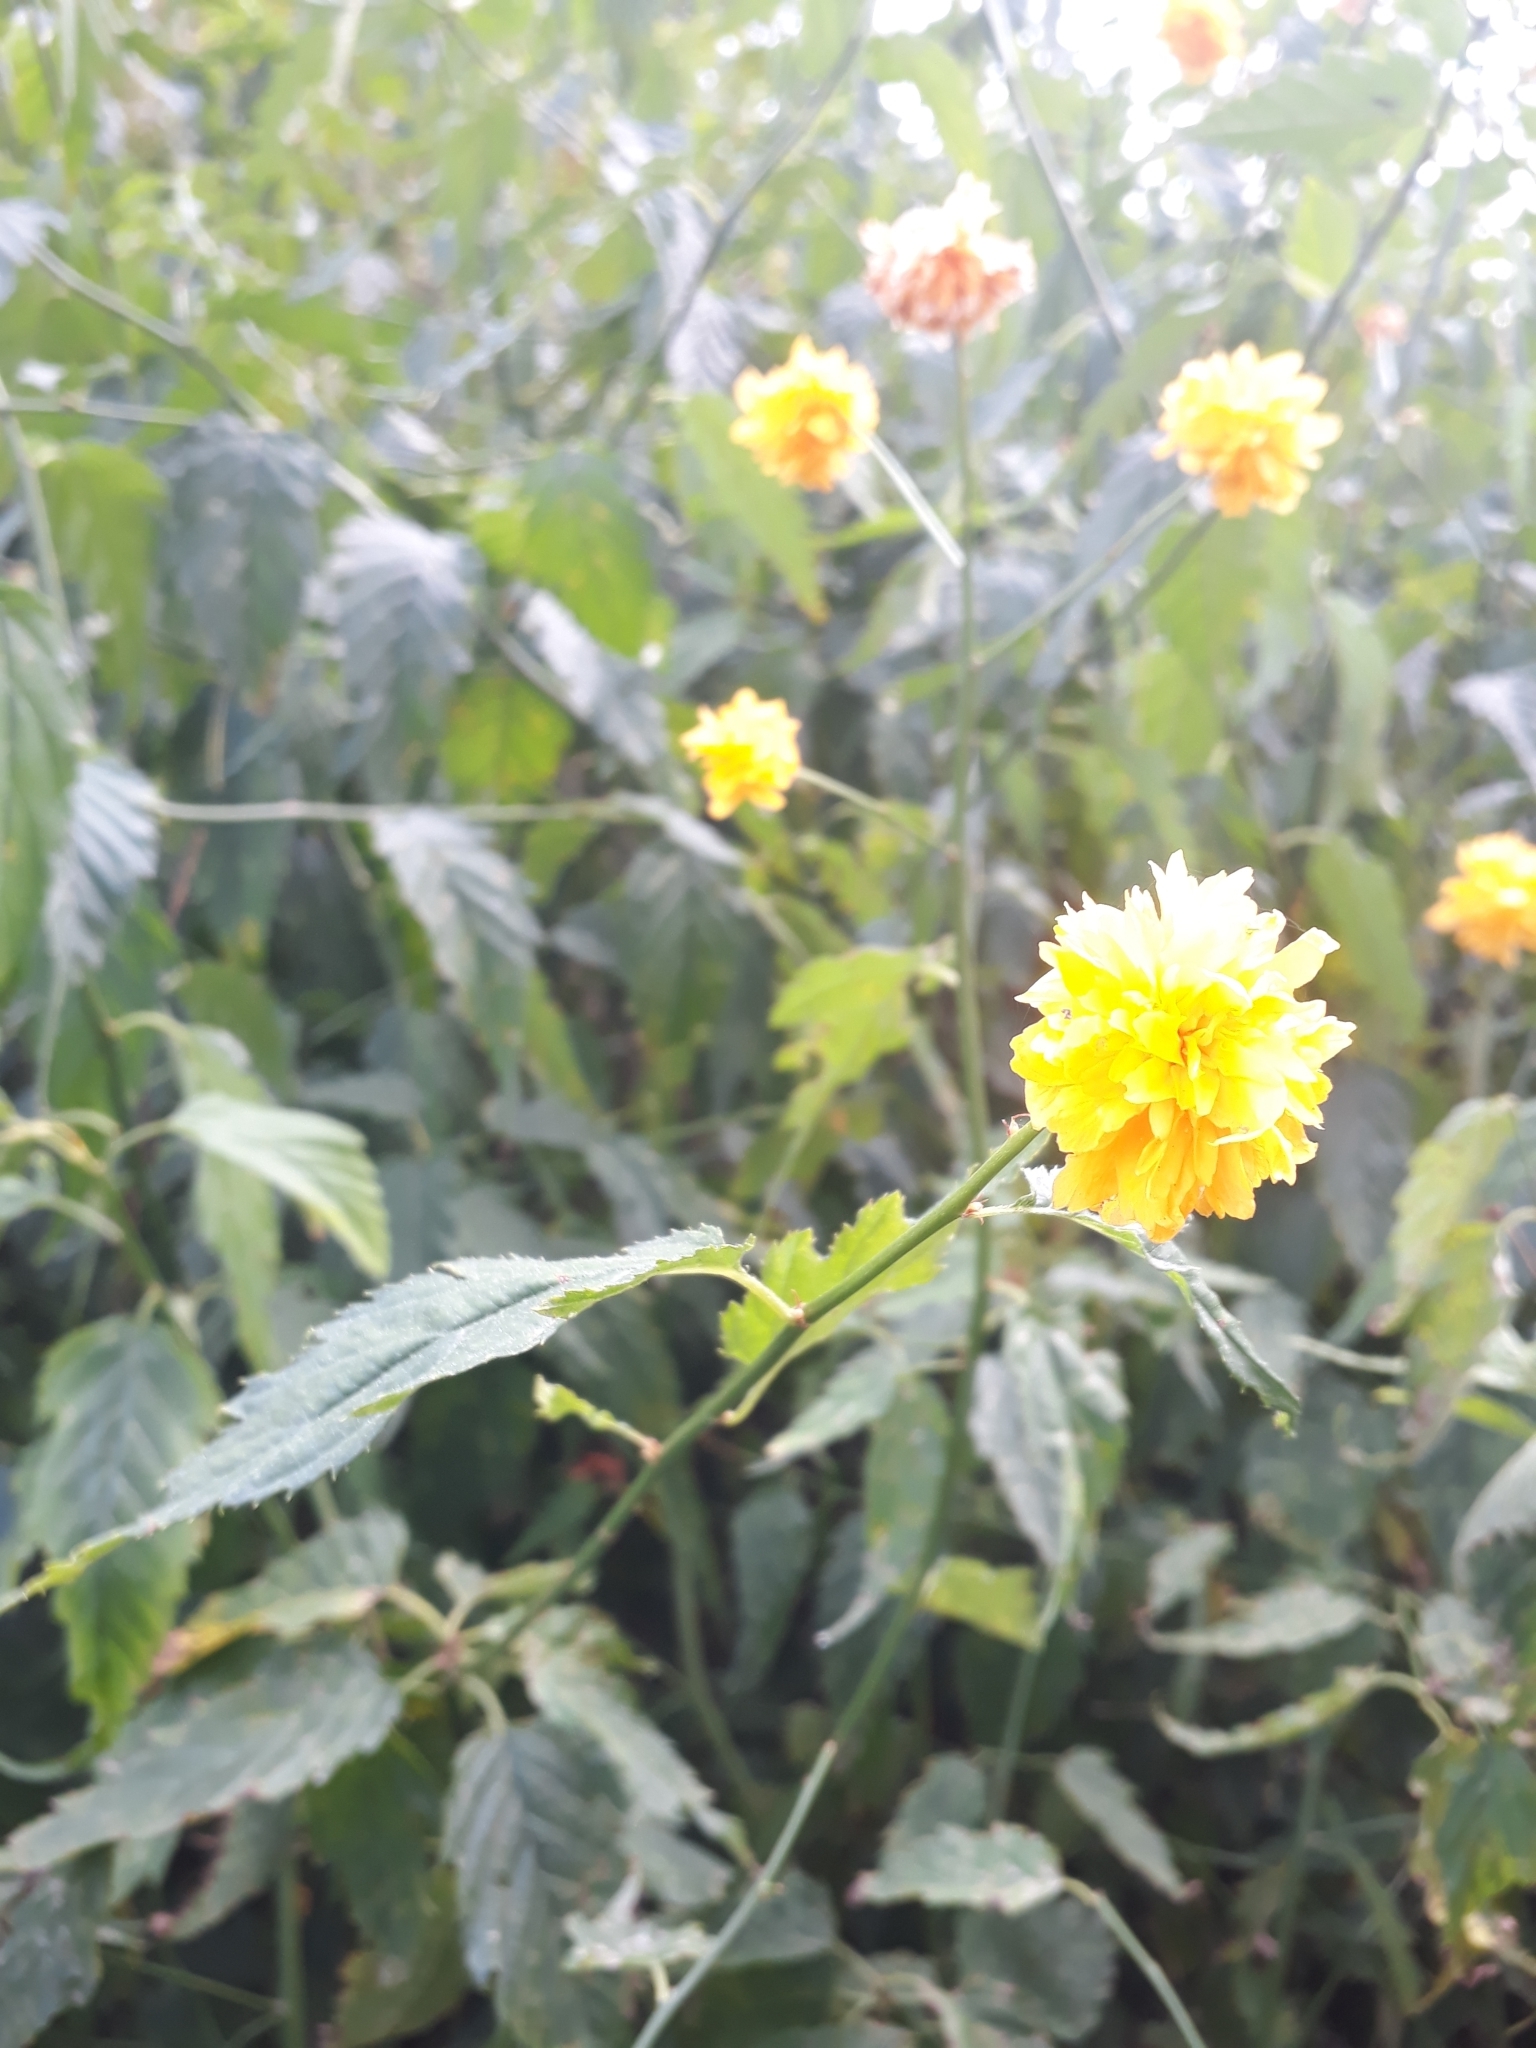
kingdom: Plantae
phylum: Tracheophyta
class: Magnoliopsida
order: Rosales
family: Rosaceae
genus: Kerria
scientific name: Kerria japonica
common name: Japanese kerria
